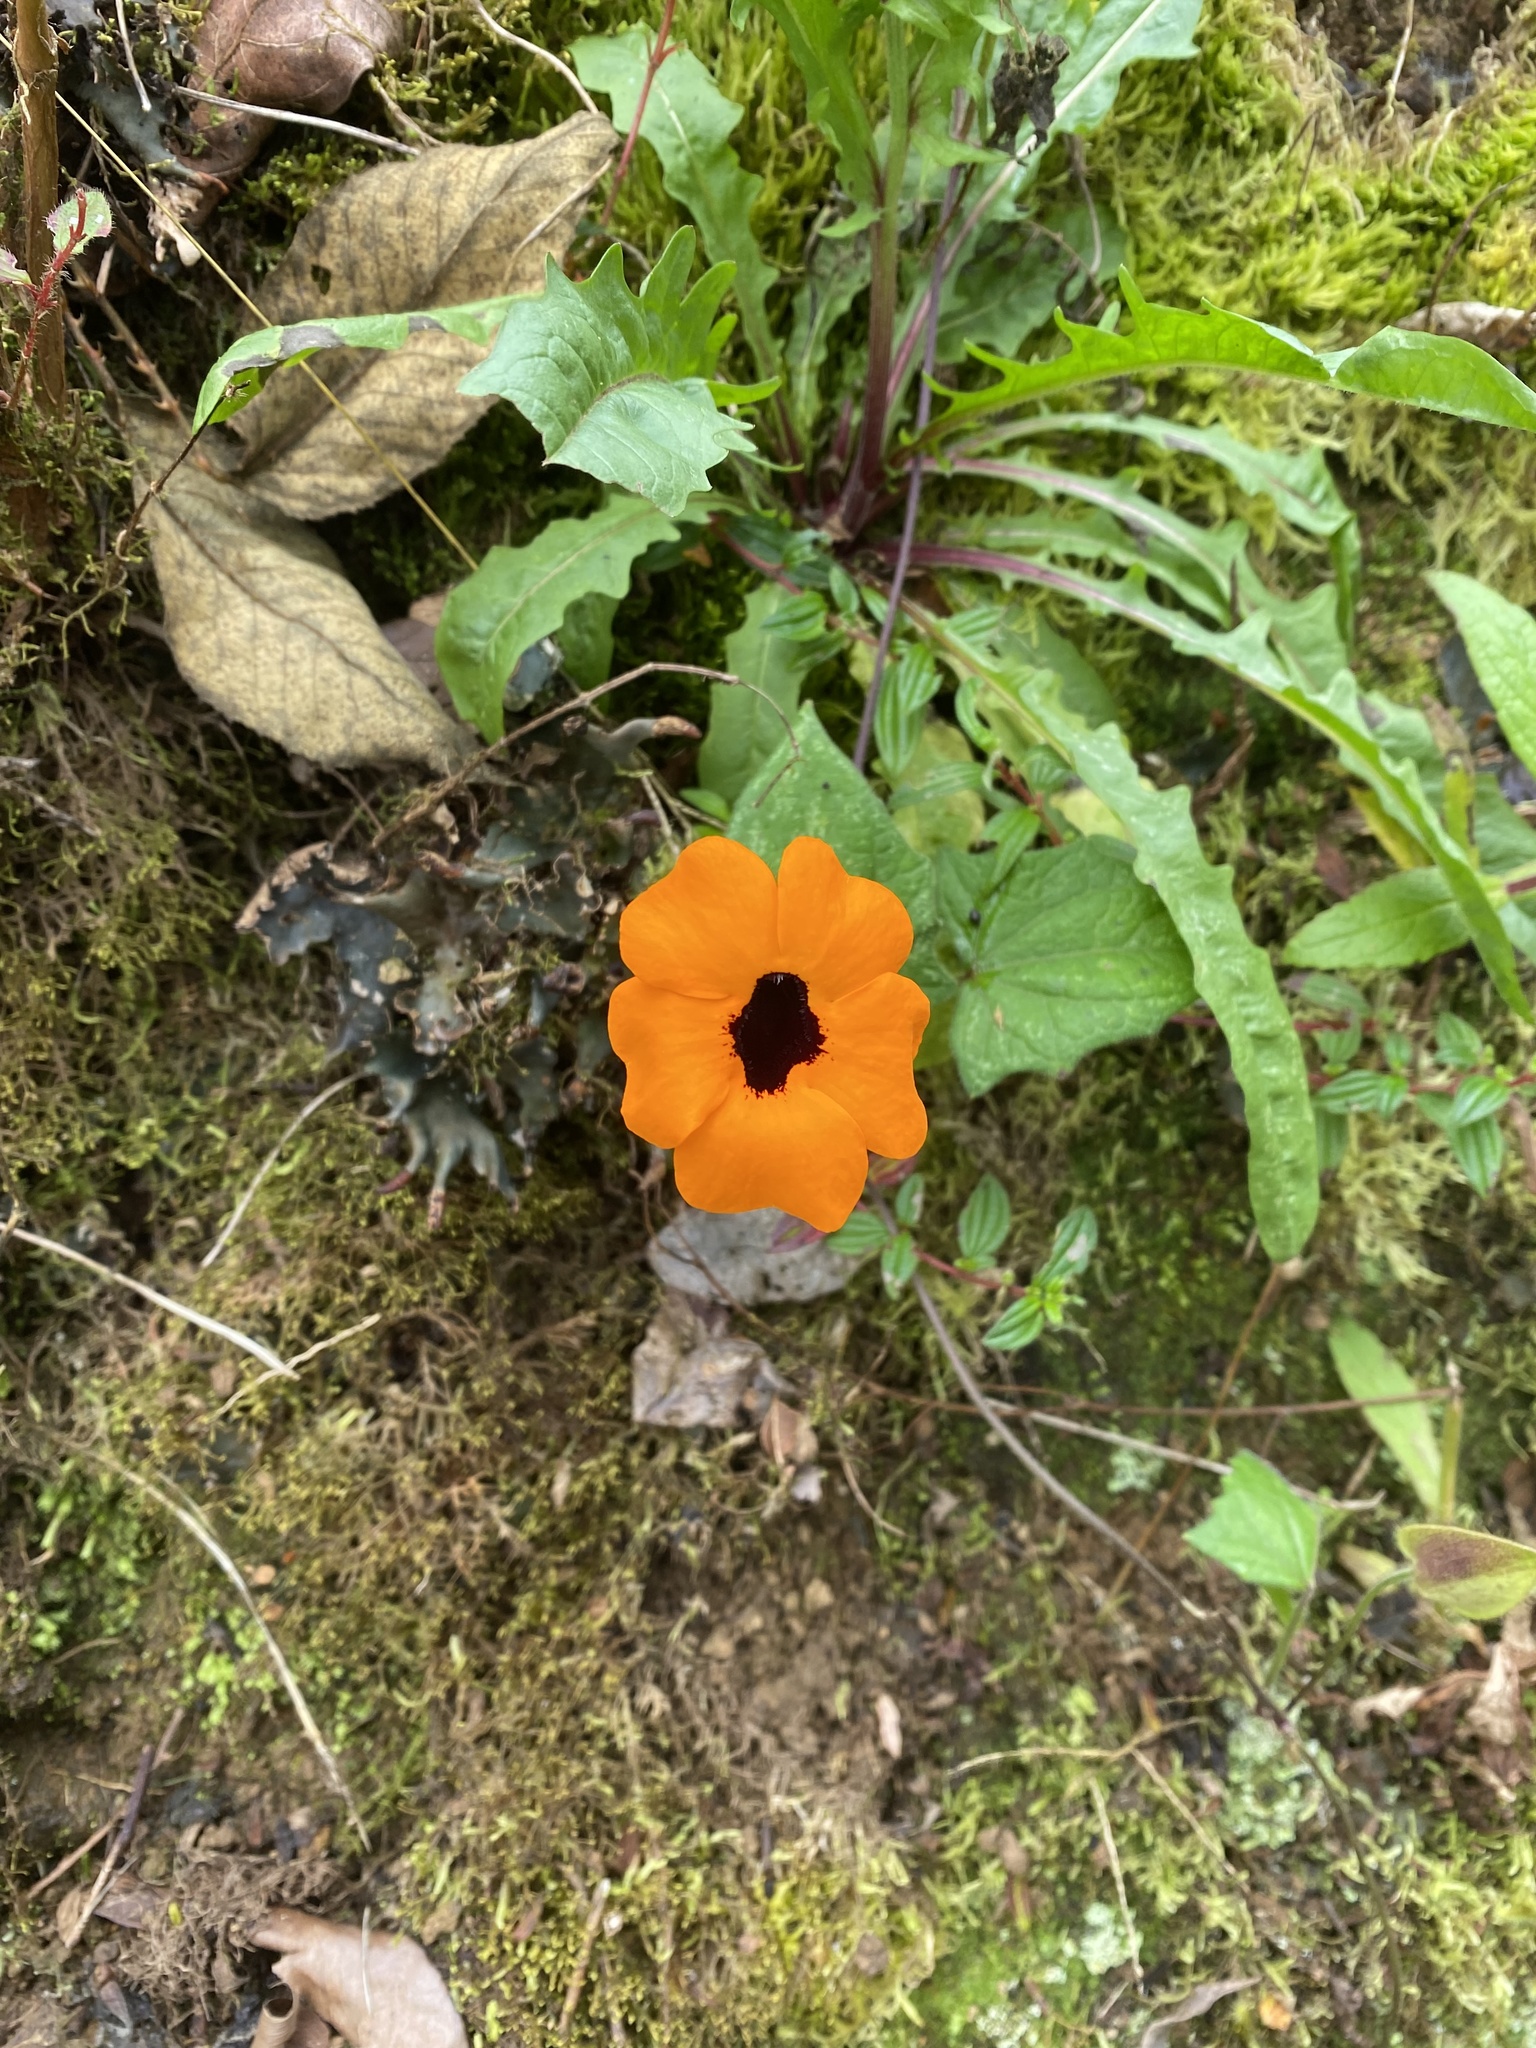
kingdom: Plantae
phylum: Tracheophyta
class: Magnoliopsida
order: Lamiales
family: Acanthaceae
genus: Thunbergia
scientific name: Thunbergia alata
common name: Blackeyed susan vine
